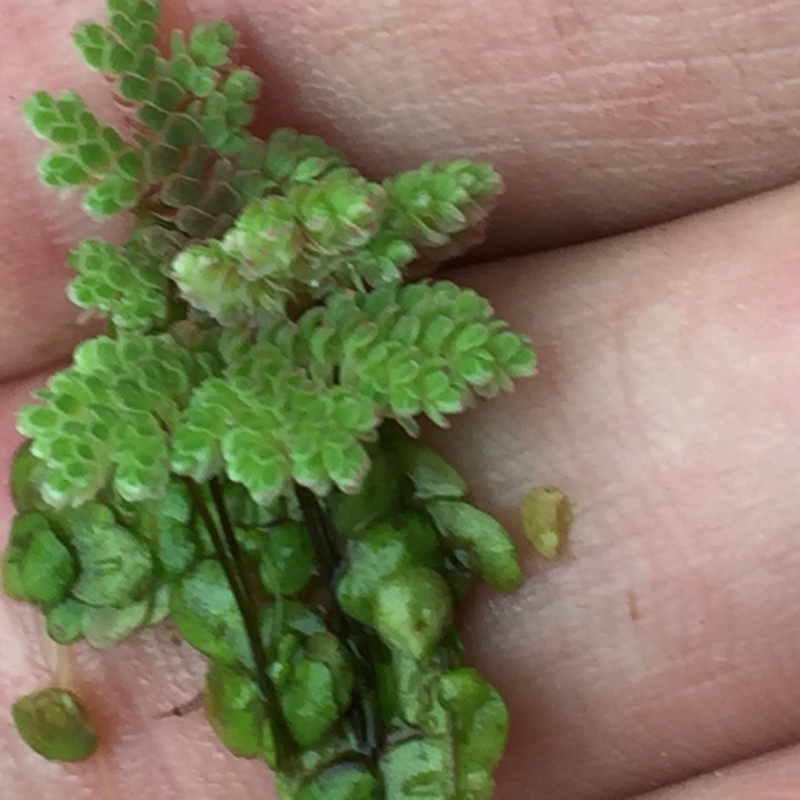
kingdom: Plantae
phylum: Tracheophyta
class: Polypodiopsida
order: Salviniales
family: Salviniaceae
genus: Azolla
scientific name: Azolla filiculoides
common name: Water fern
